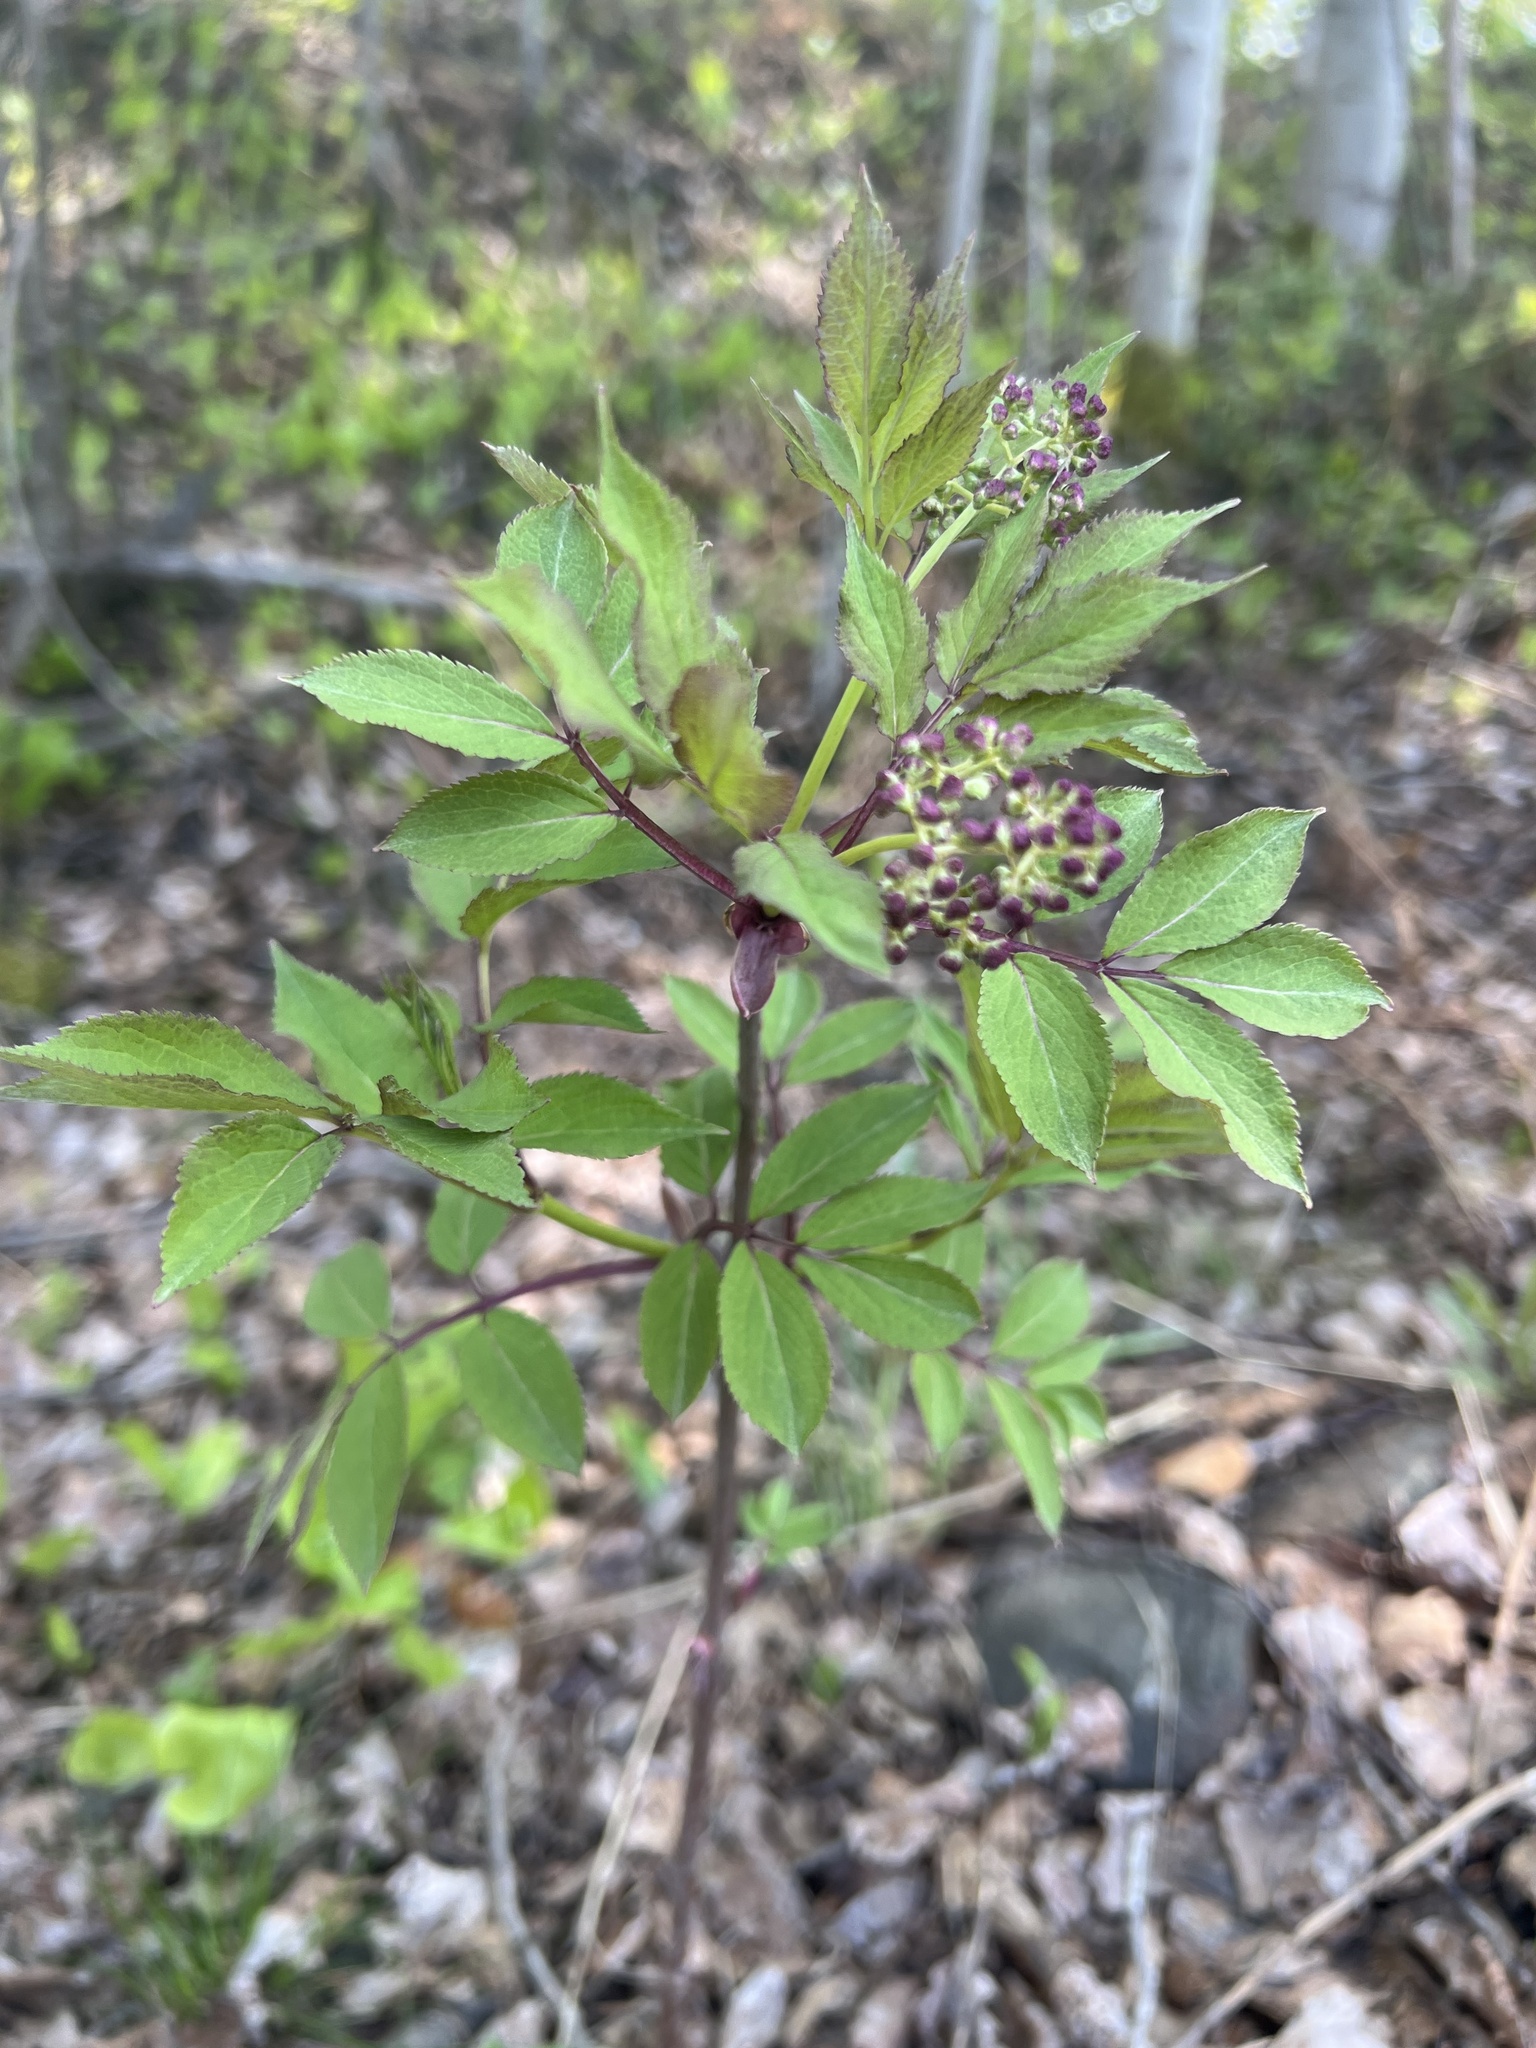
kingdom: Plantae
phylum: Tracheophyta
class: Magnoliopsida
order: Dipsacales
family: Viburnaceae
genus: Sambucus
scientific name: Sambucus racemosa
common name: Red-berried elder
